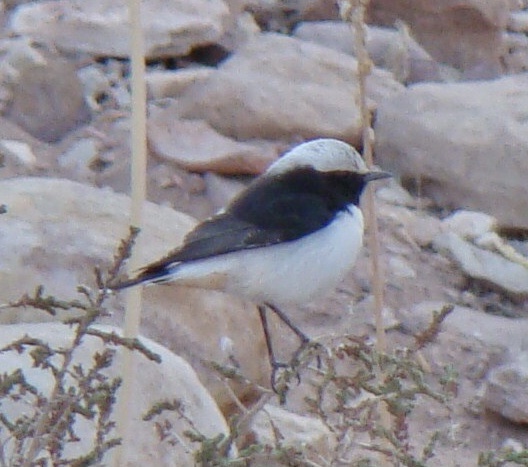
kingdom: Animalia
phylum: Chordata
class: Aves
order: Passeriformes
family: Muscicapidae
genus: Oenanthe
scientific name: Oenanthe lugens
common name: Mourning wheatear
